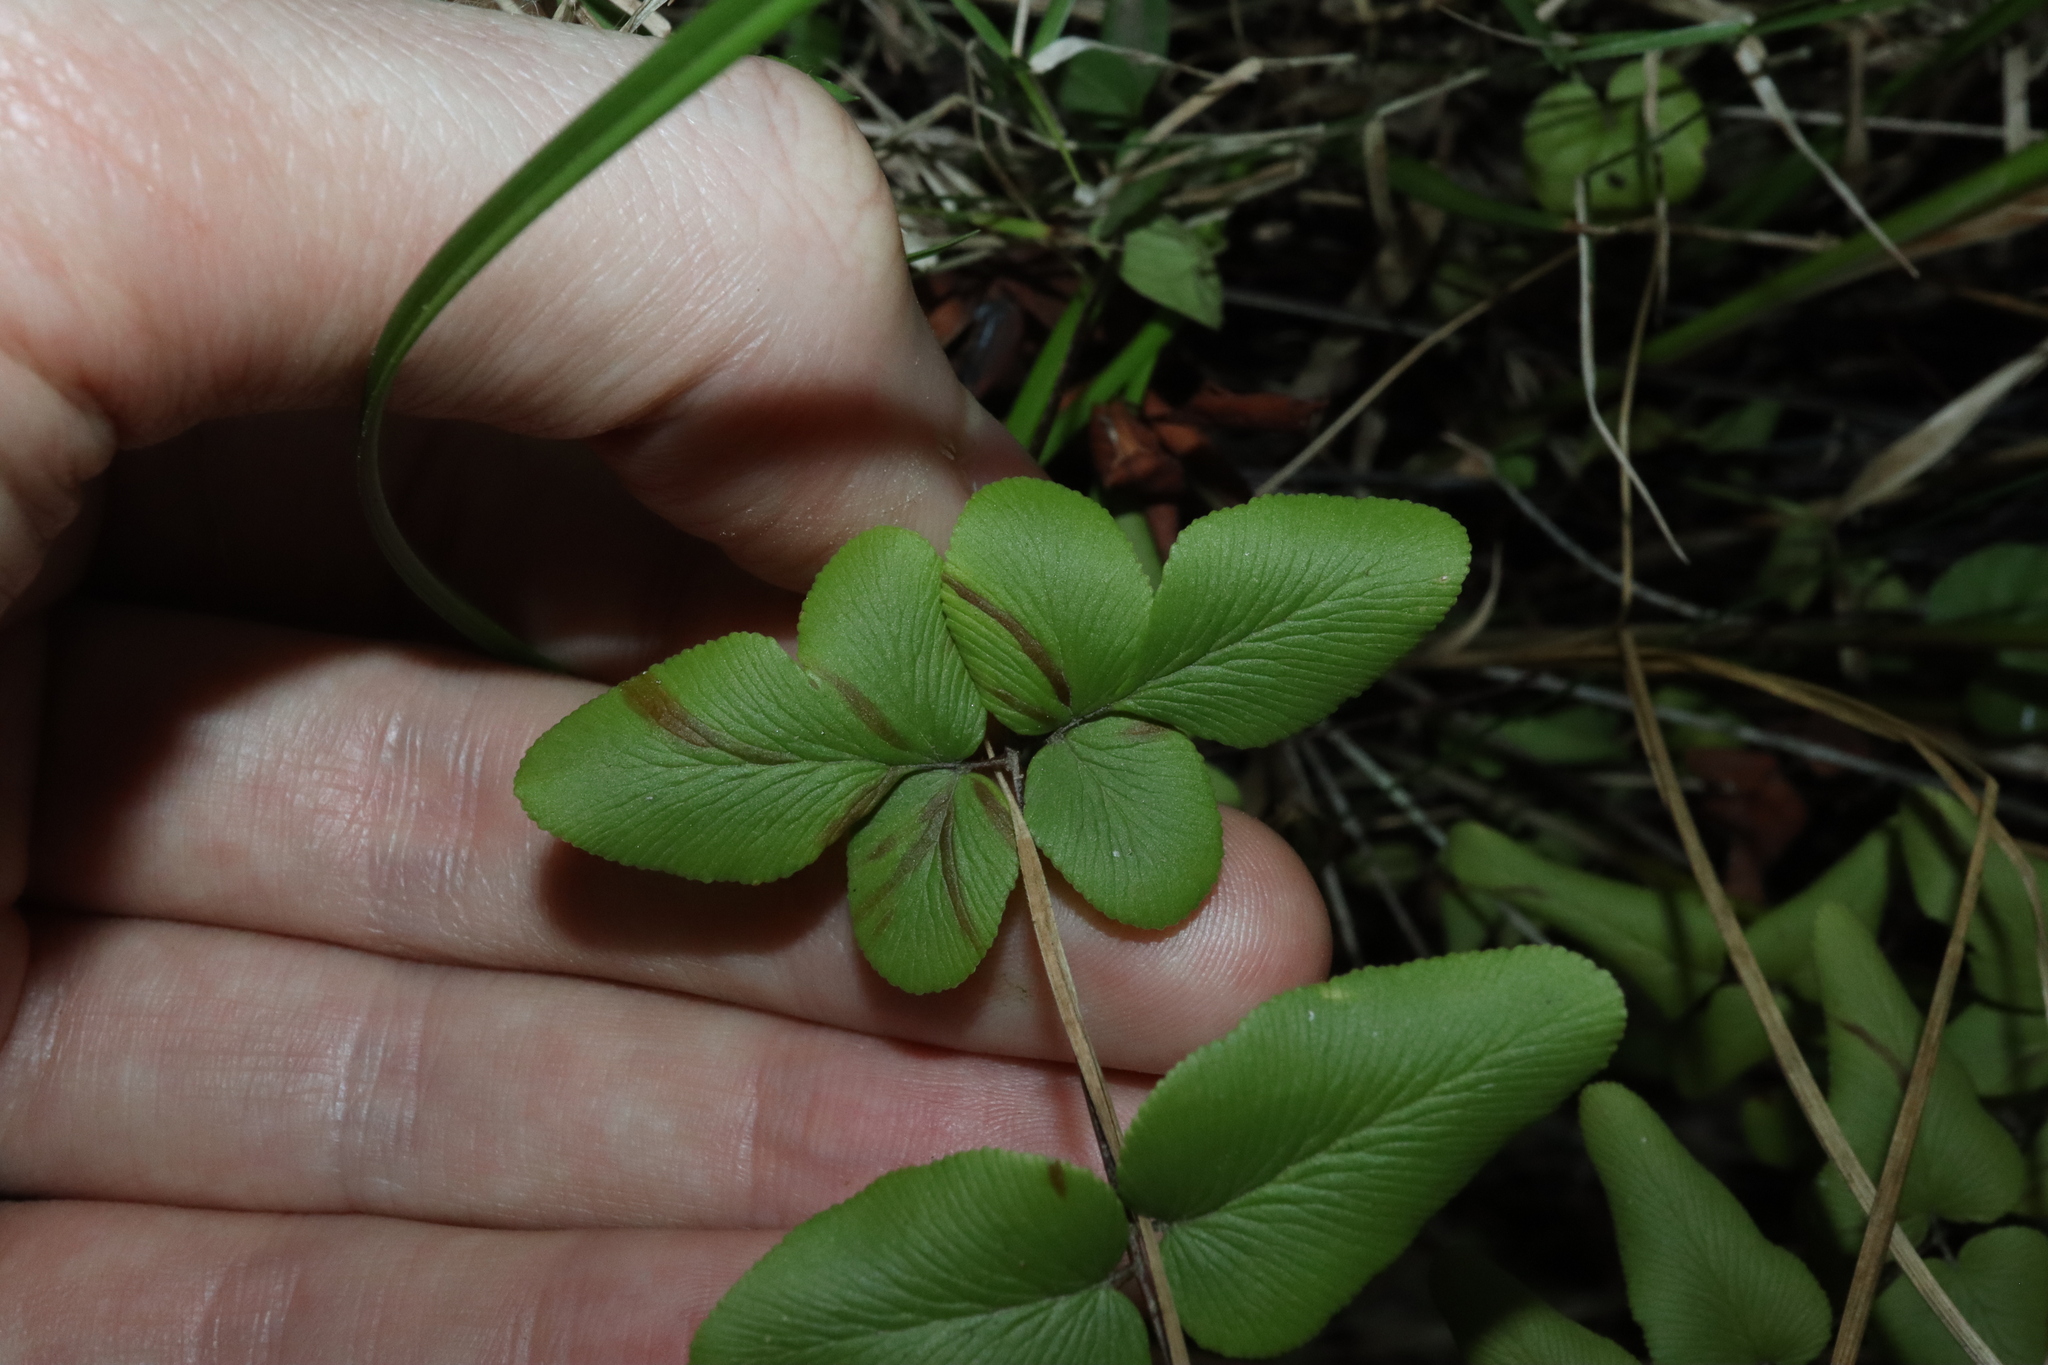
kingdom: Plantae
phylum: Tracheophyta
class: Polypodiopsida
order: Polypodiales
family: Pteridaceae
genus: Cheilanthes
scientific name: Cheilanthes viridis
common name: Green cliffbrake
